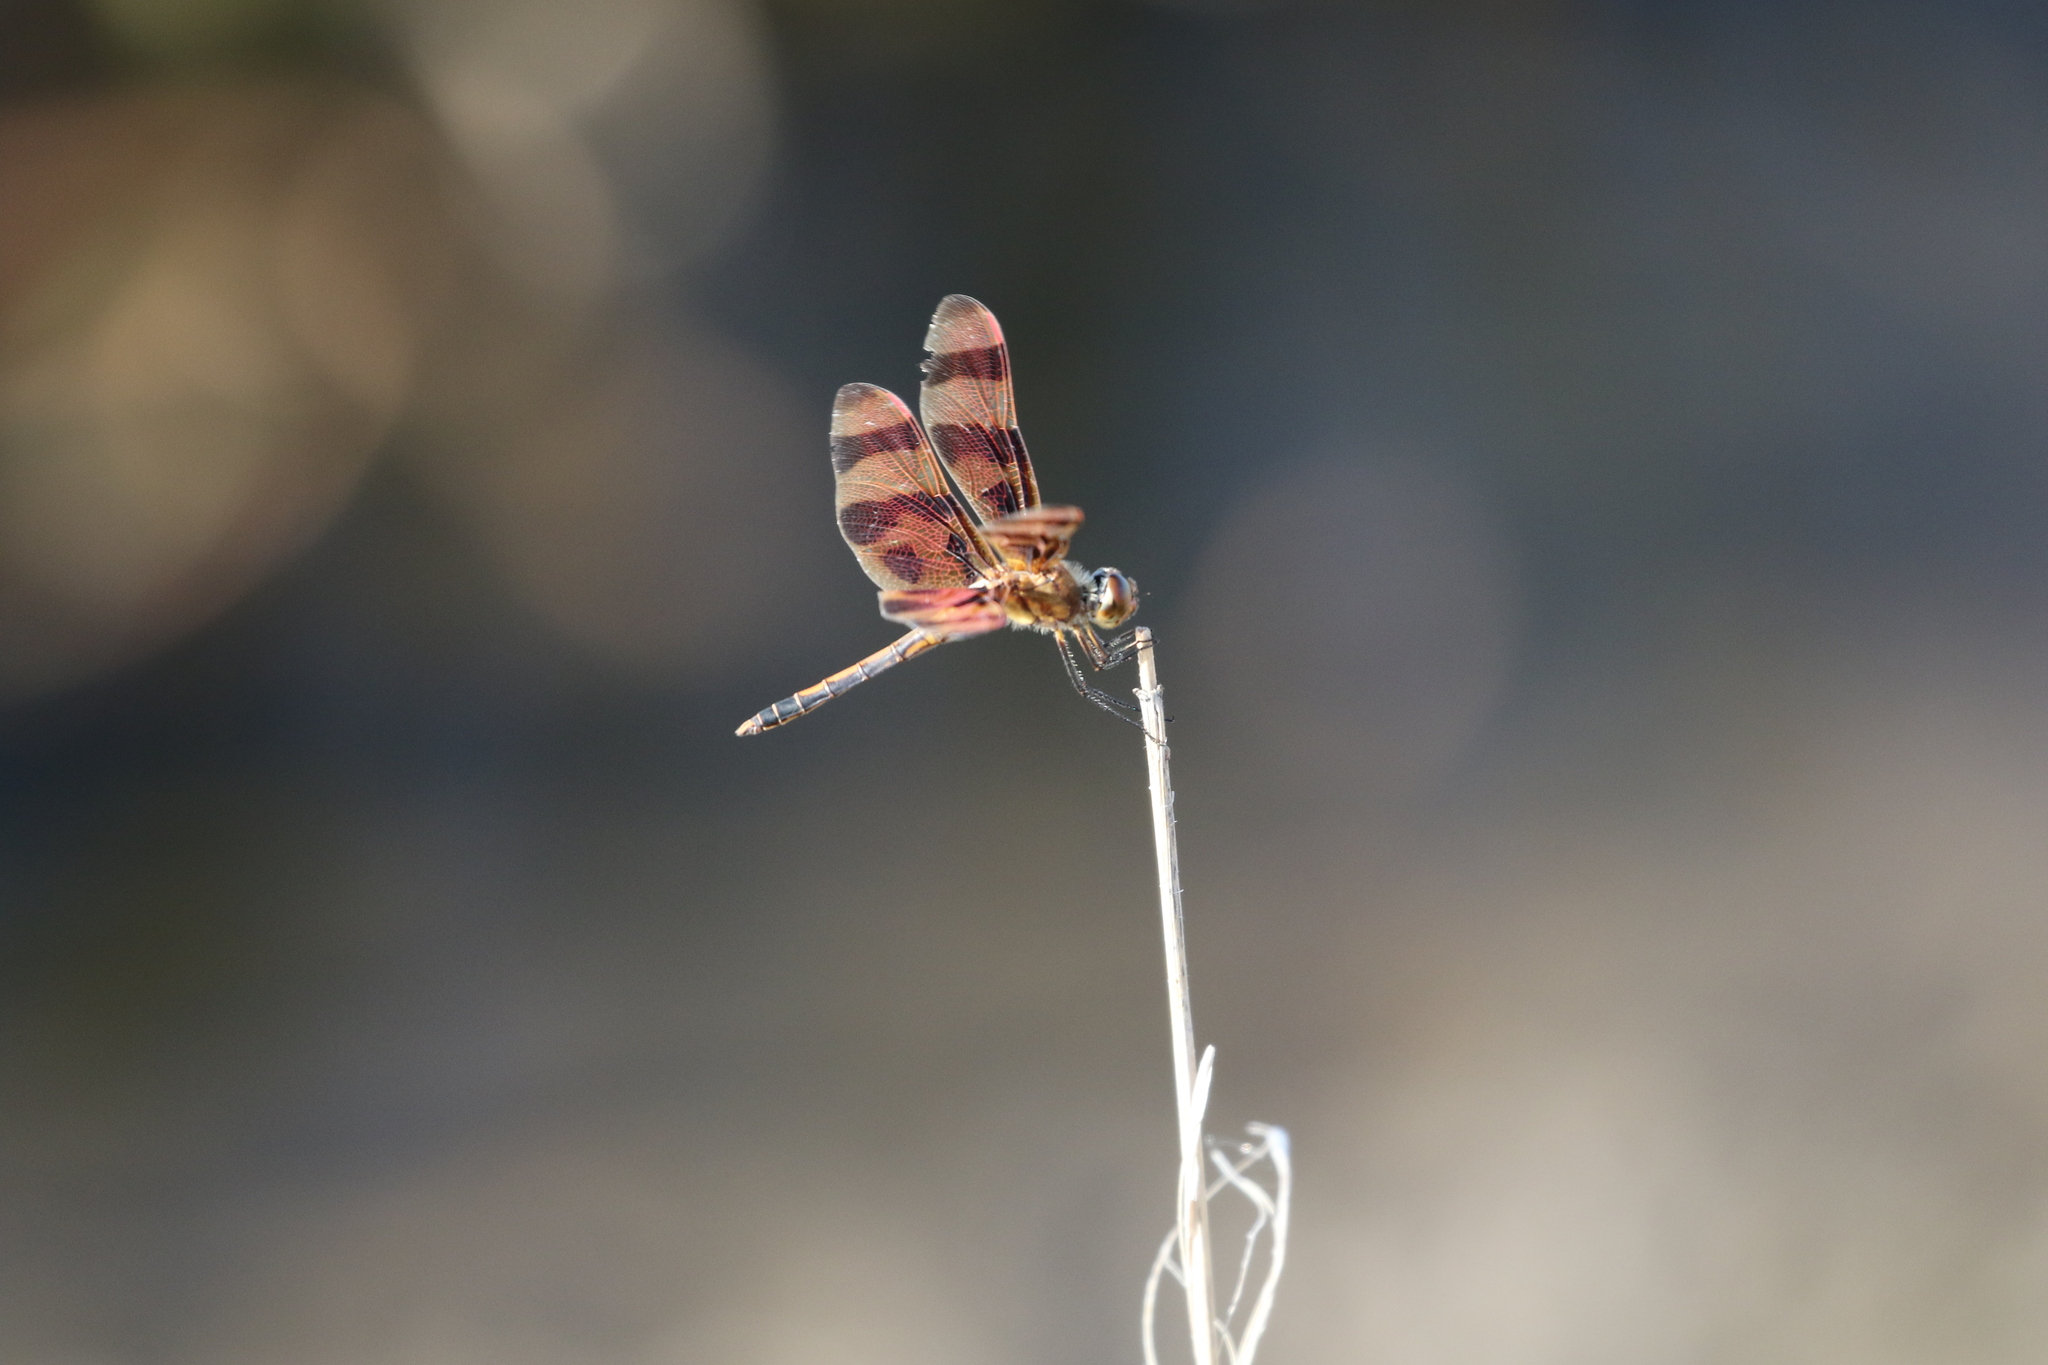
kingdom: Animalia
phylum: Arthropoda
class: Insecta
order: Odonata
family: Libellulidae
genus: Celithemis
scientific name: Celithemis eponina
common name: Halloween pennant
